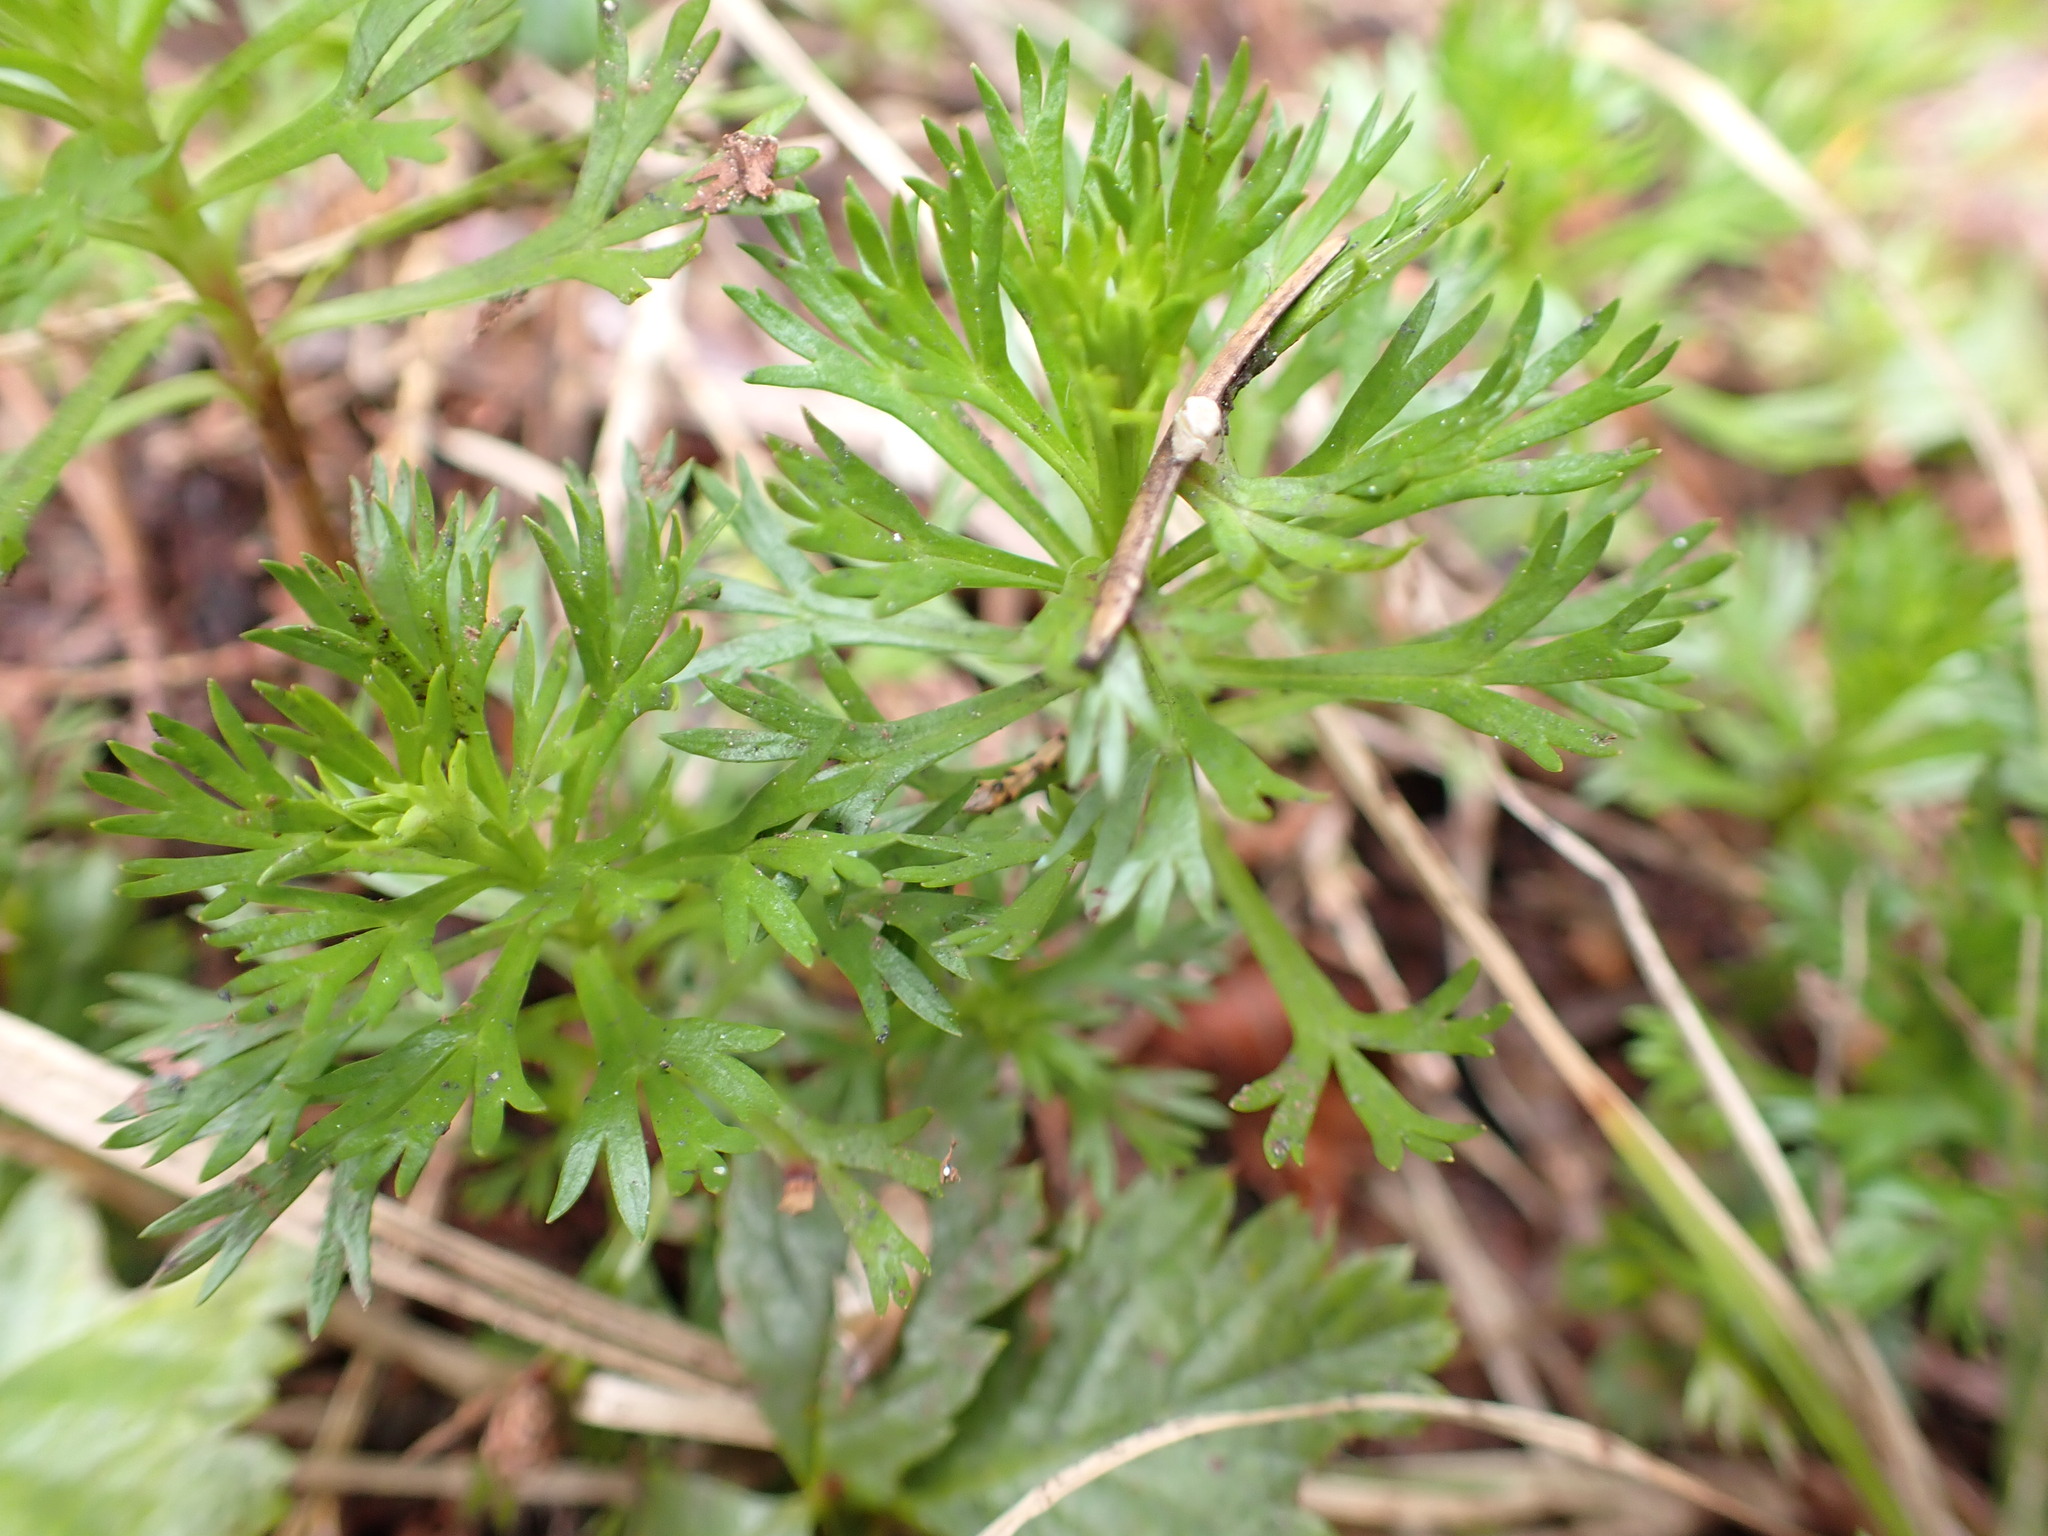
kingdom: Plantae
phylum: Tracheophyta
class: Magnoliopsida
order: Rosales
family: Rosaceae
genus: Luetkea
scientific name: Luetkea pectinata
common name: Partridgefoot
